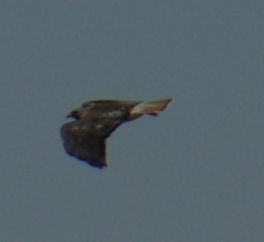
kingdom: Animalia
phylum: Chordata
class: Aves
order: Accipitriformes
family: Accipitridae
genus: Buteo
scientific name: Buteo jamaicensis
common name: Red-tailed hawk
